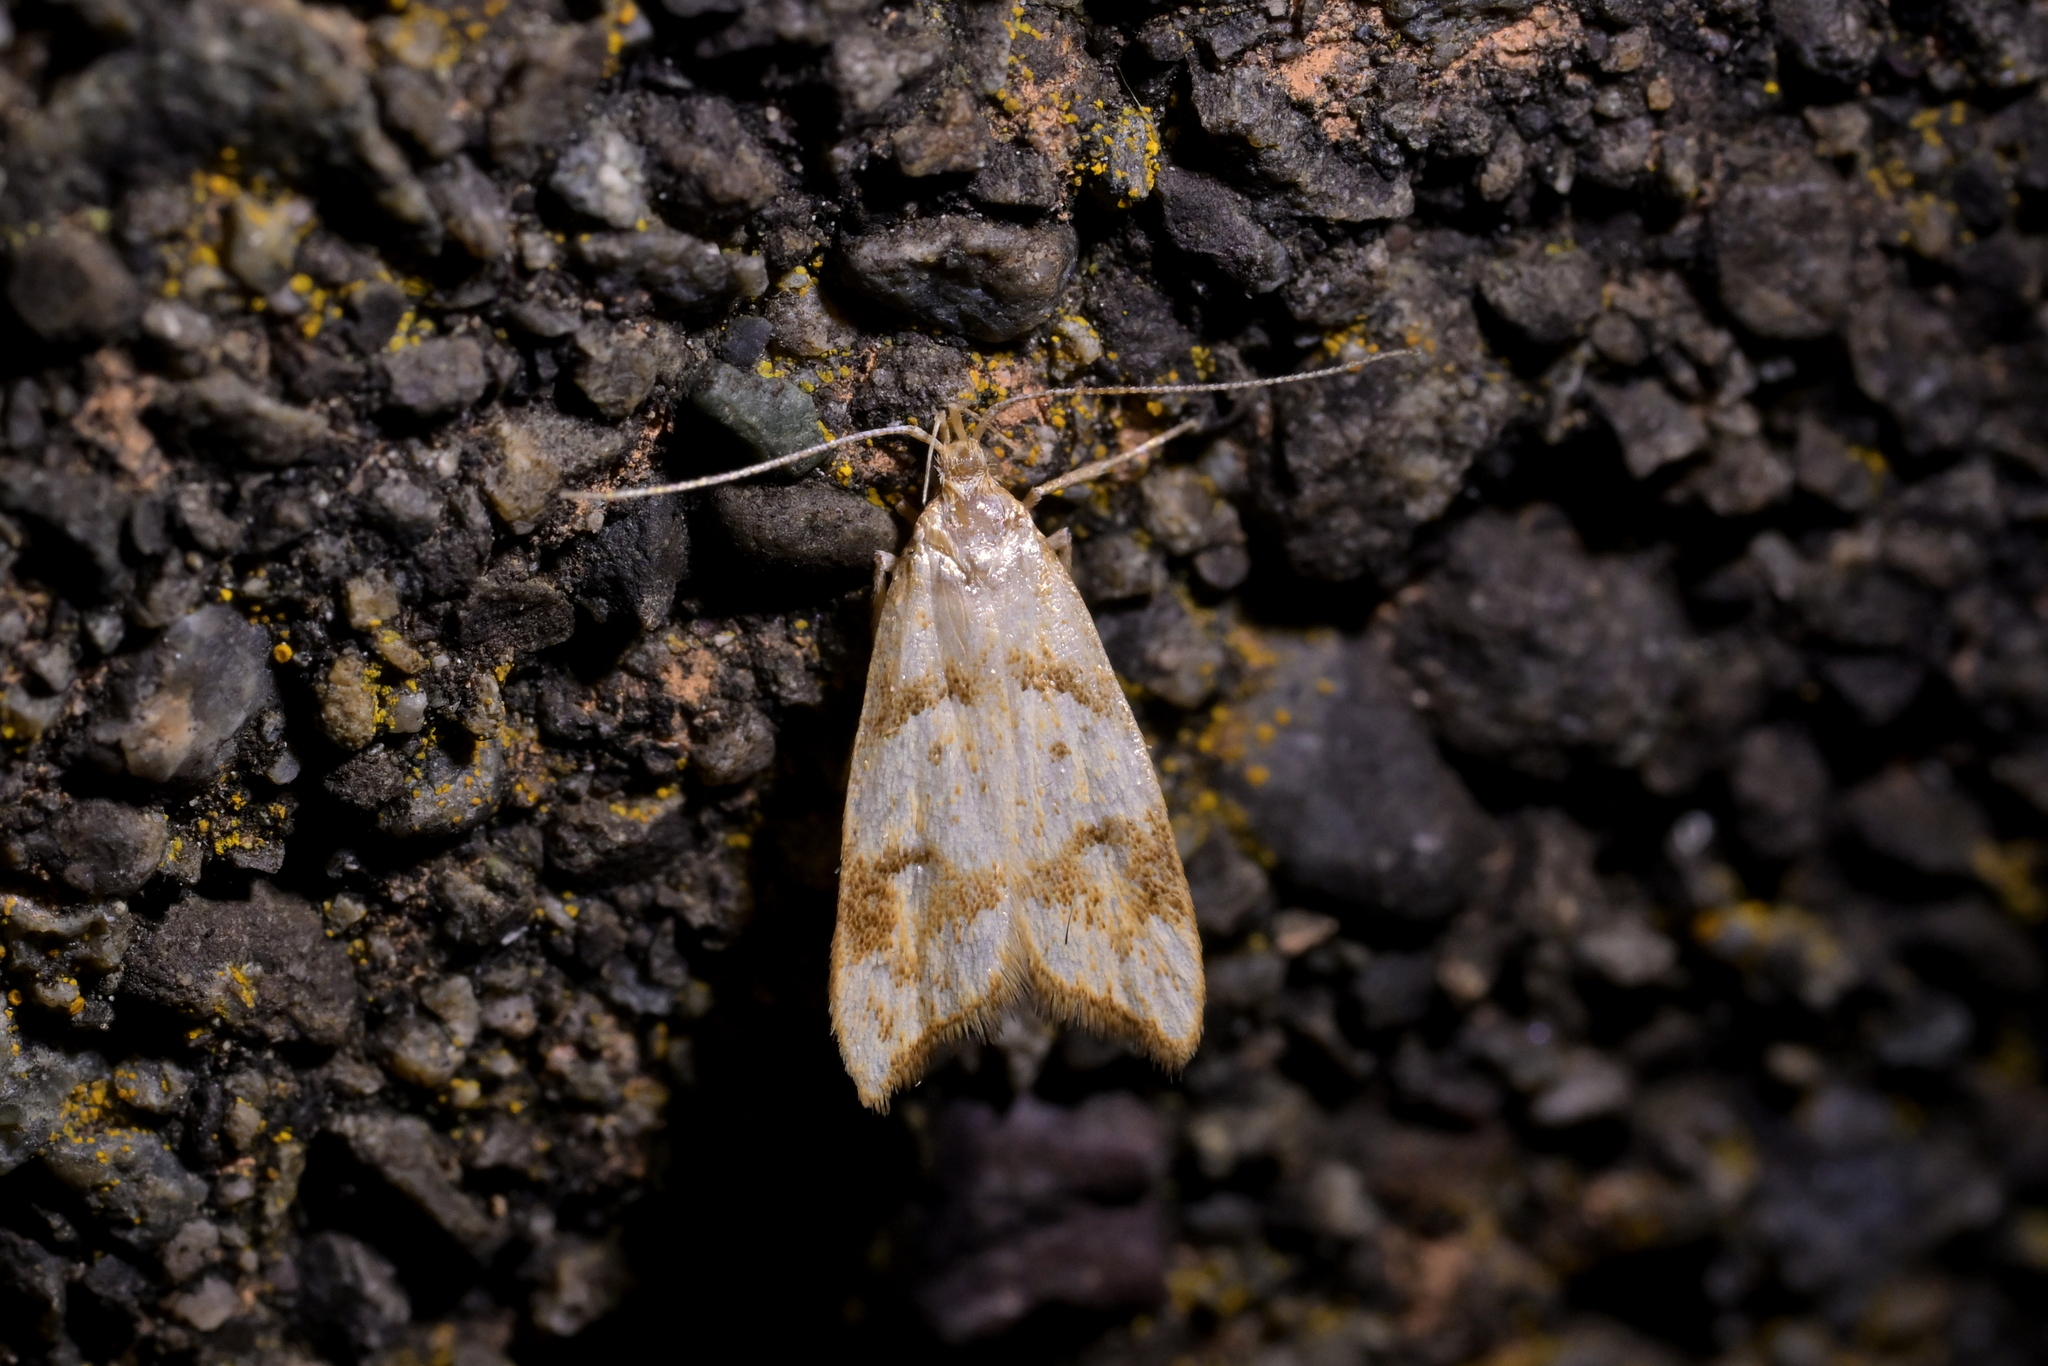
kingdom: Animalia
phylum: Arthropoda
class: Insecta
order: Lepidoptera
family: Oecophoridae
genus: Gymnobathra
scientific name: Gymnobathra hamatella
